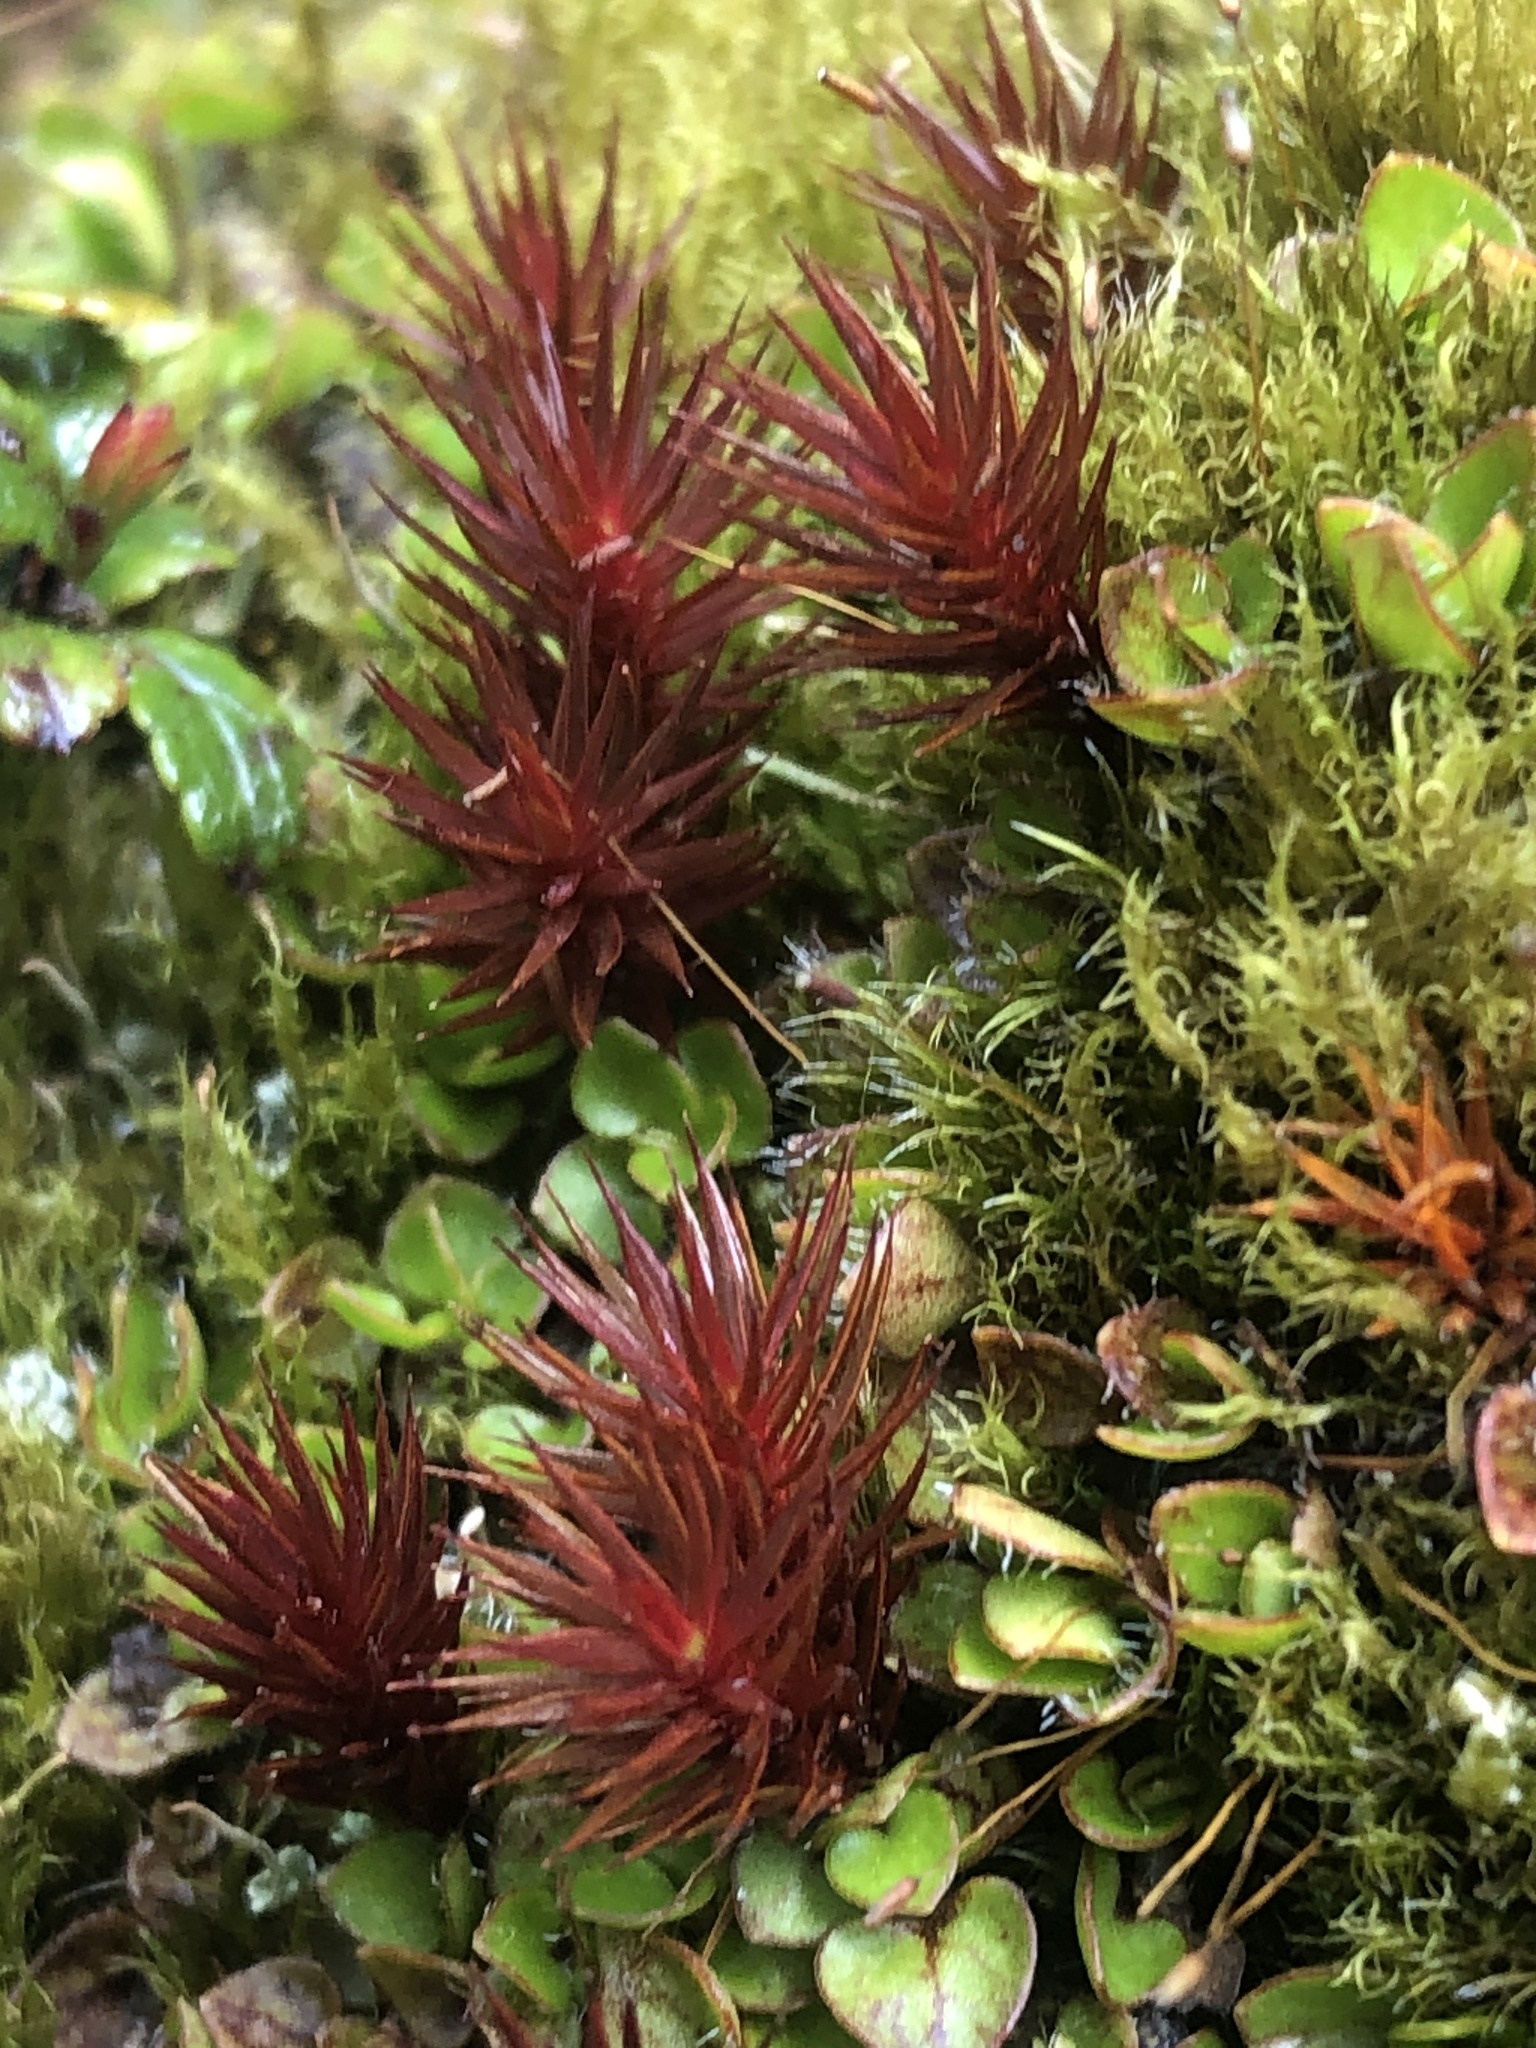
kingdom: Plantae
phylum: Bryophyta
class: Polytrichopsida
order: Polytrichales
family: Polytrichaceae
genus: Polytrichum
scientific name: Polytrichum juniperinum
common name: Juniper haircap moss
